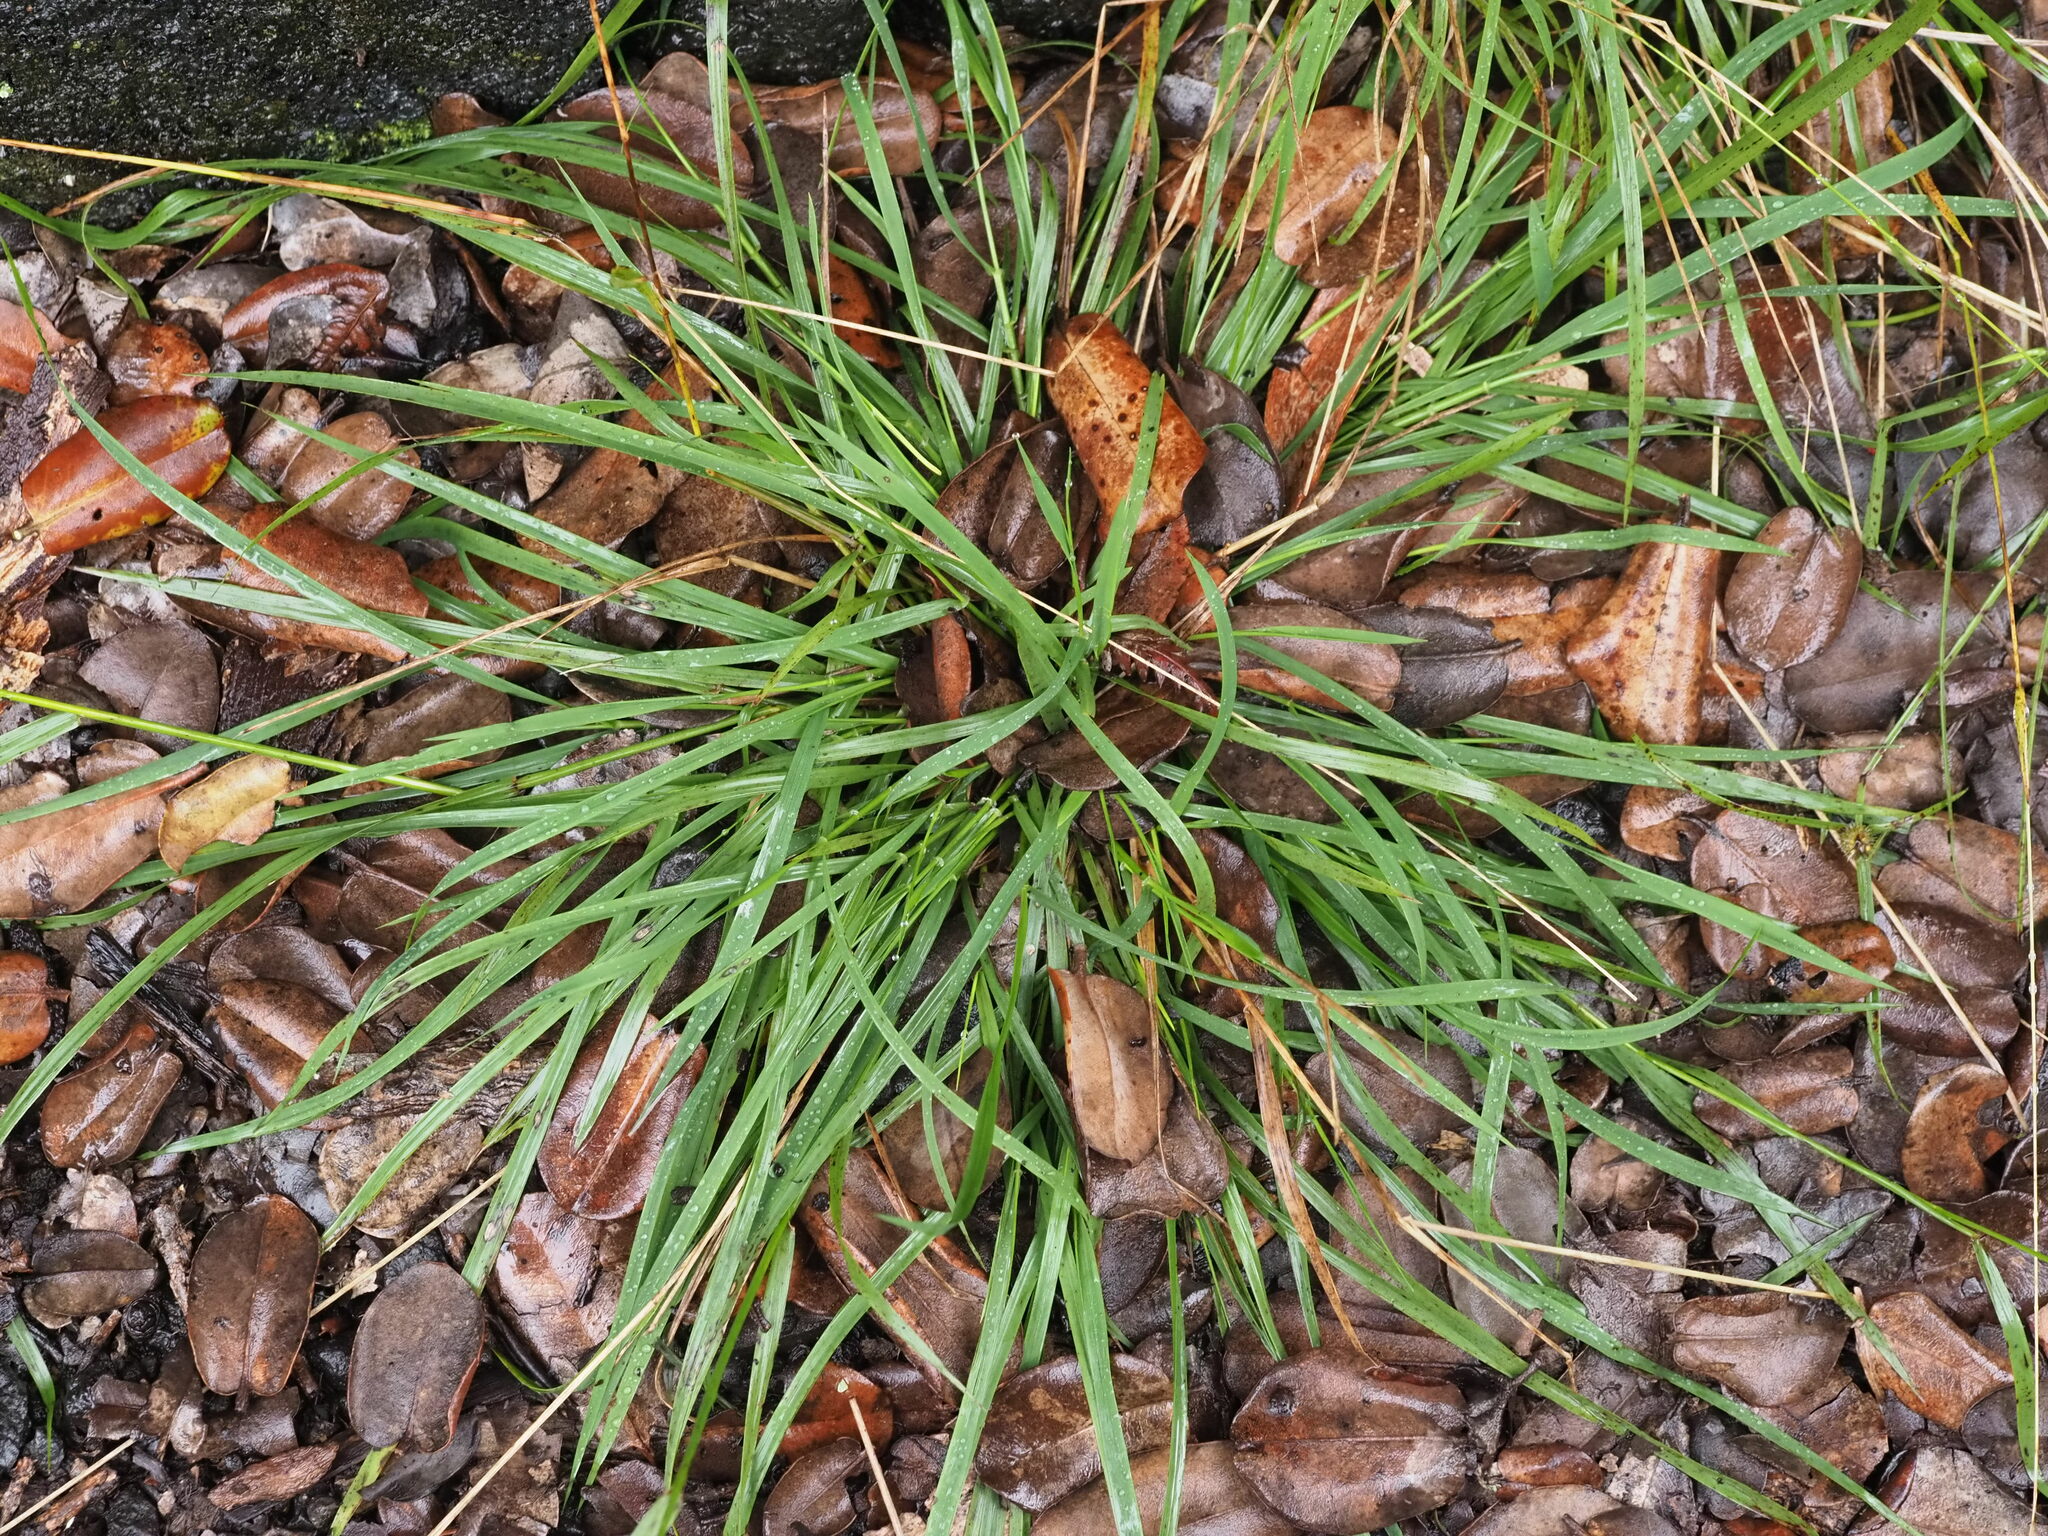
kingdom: Plantae
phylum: Tracheophyta
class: Liliopsida
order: Poales
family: Poaceae
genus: Microlaena
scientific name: Microlaena stipoides
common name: Meadow ricegrass
